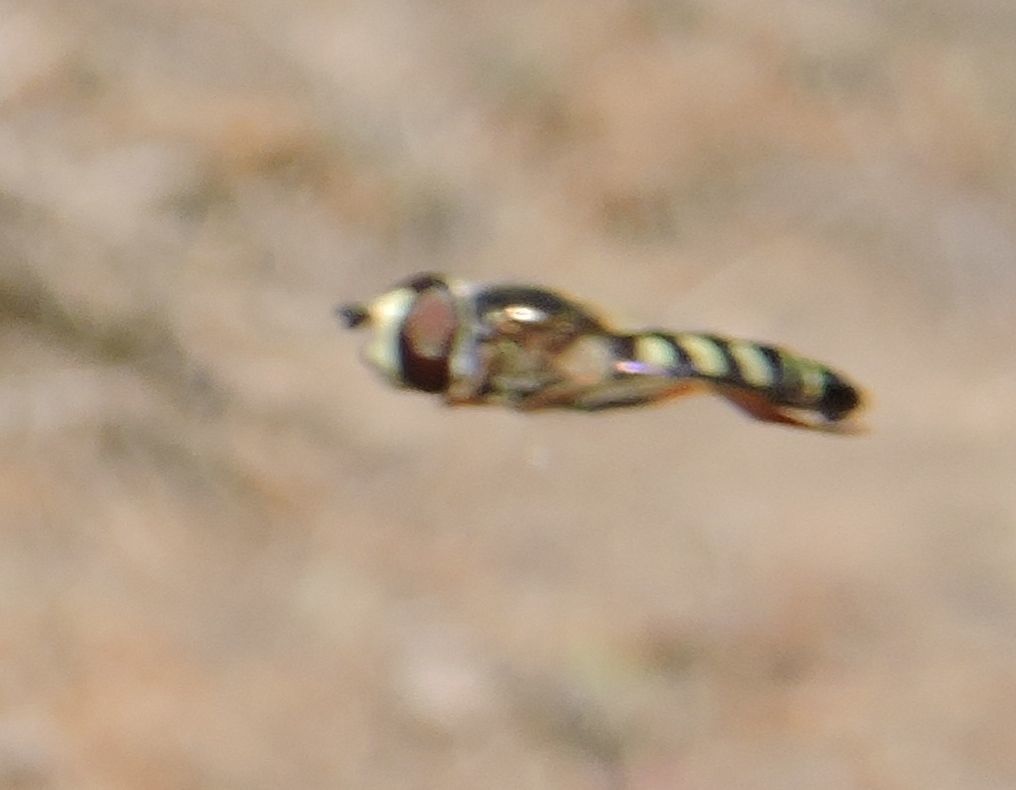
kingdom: Animalia
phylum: Arthropoda
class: Insecta
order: Diptera
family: Syrphidae
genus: Eupeodes
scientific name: Eupeodes volucris
